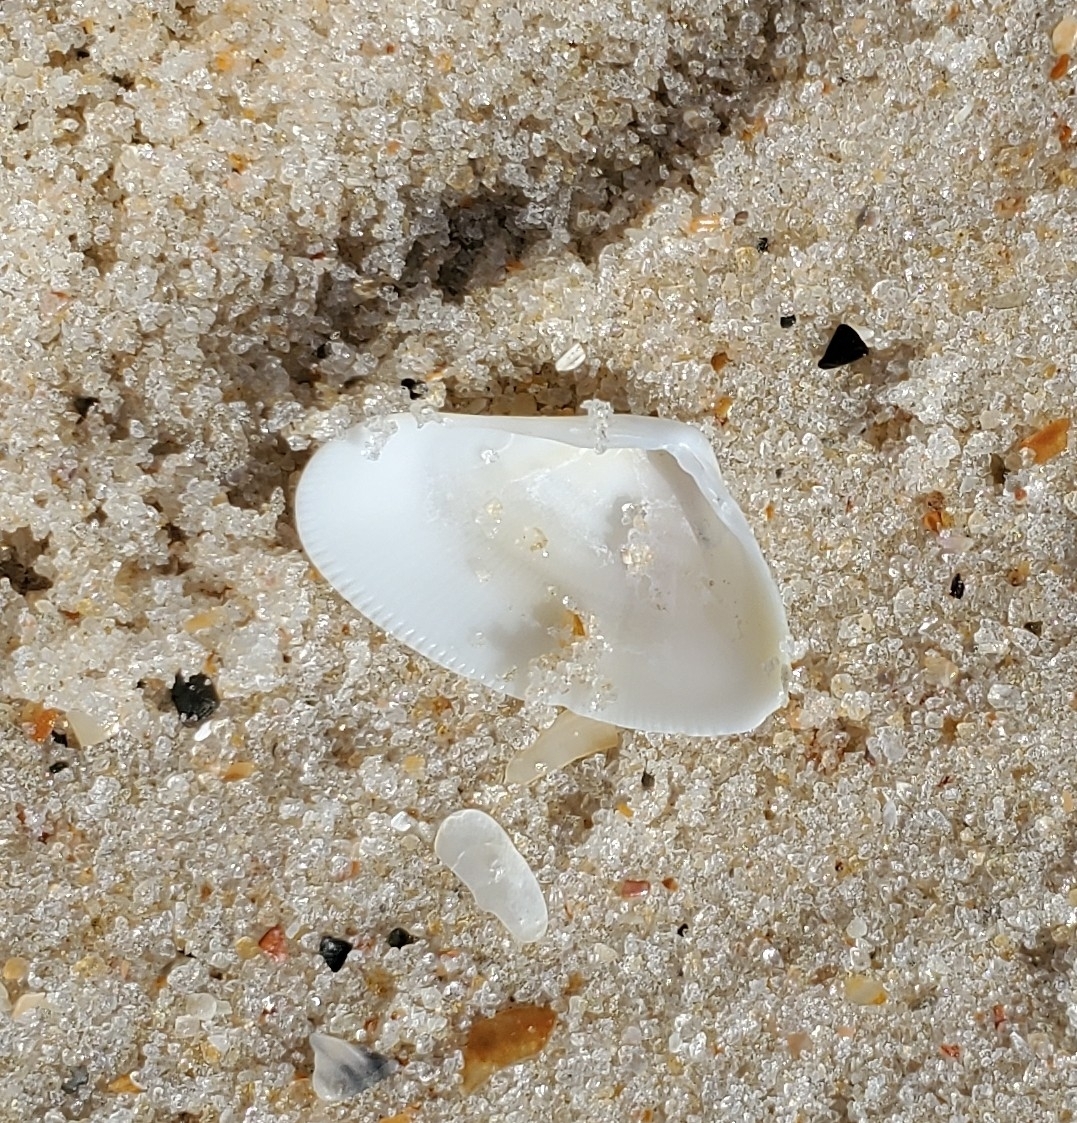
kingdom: Animalia
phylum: Mollusca
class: Bivalvia
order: Cardiida
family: Donacidae
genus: Donax
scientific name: Donax variabilis
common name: Butterfly shell
